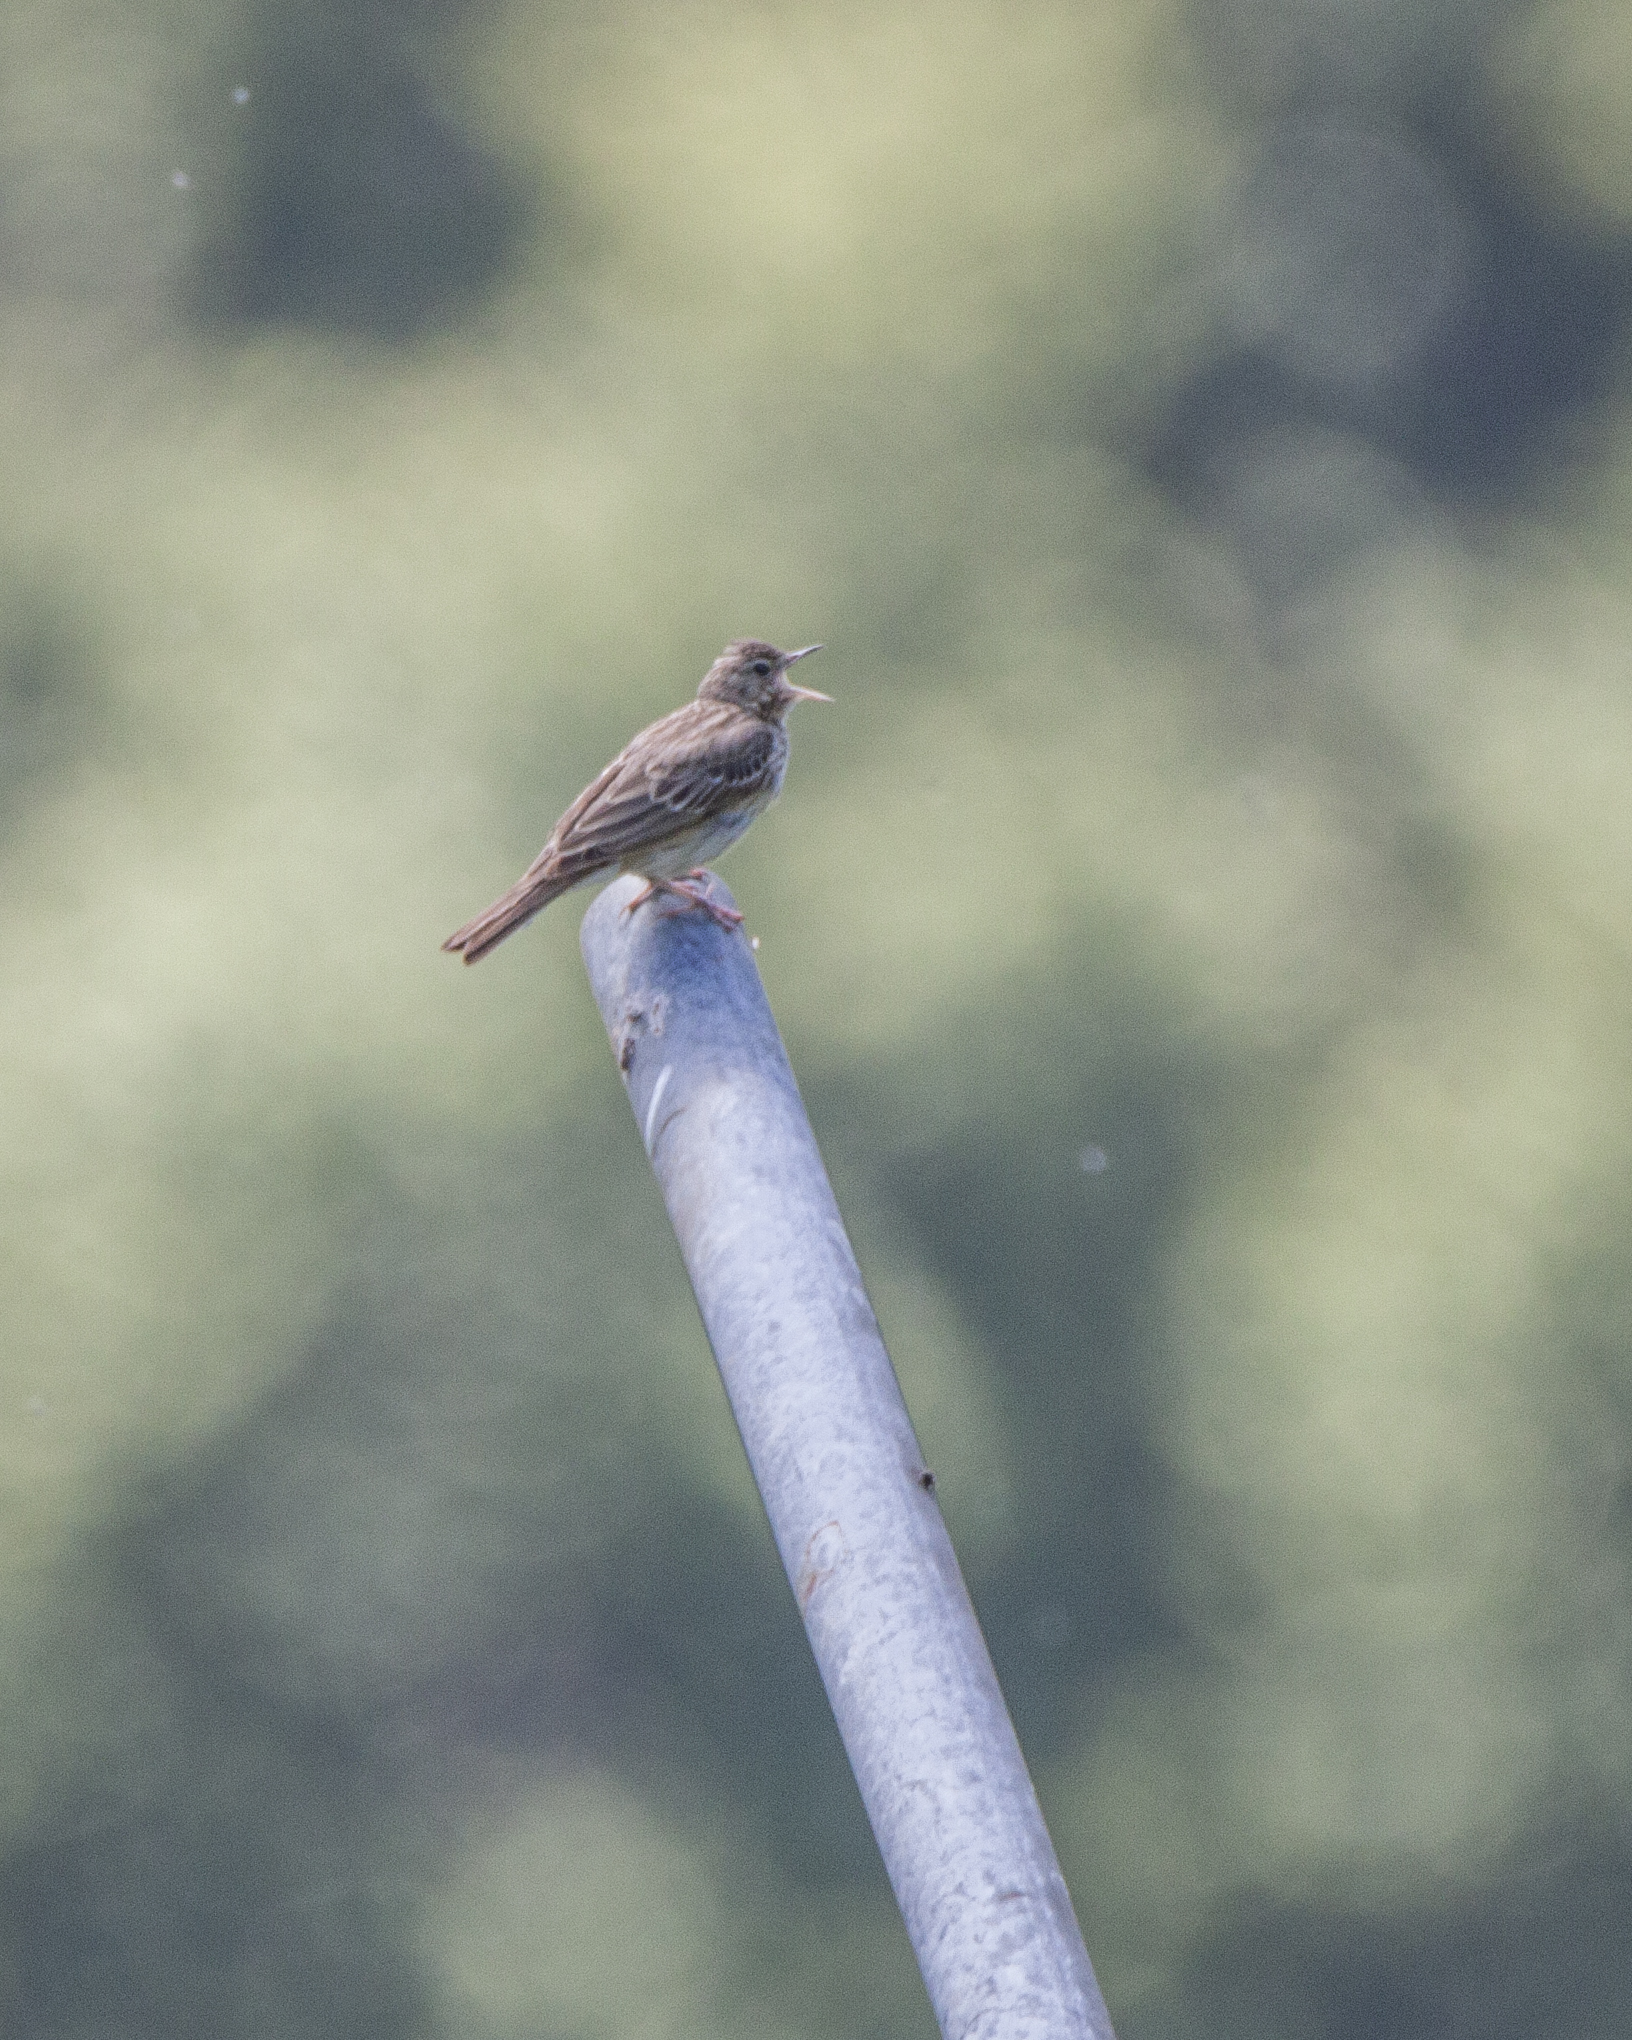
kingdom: Animalia
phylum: Chordata
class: Aves
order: Passeriformes
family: Motacillidae
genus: Anthus
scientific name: Anthus trivialis
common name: Tree pipit
